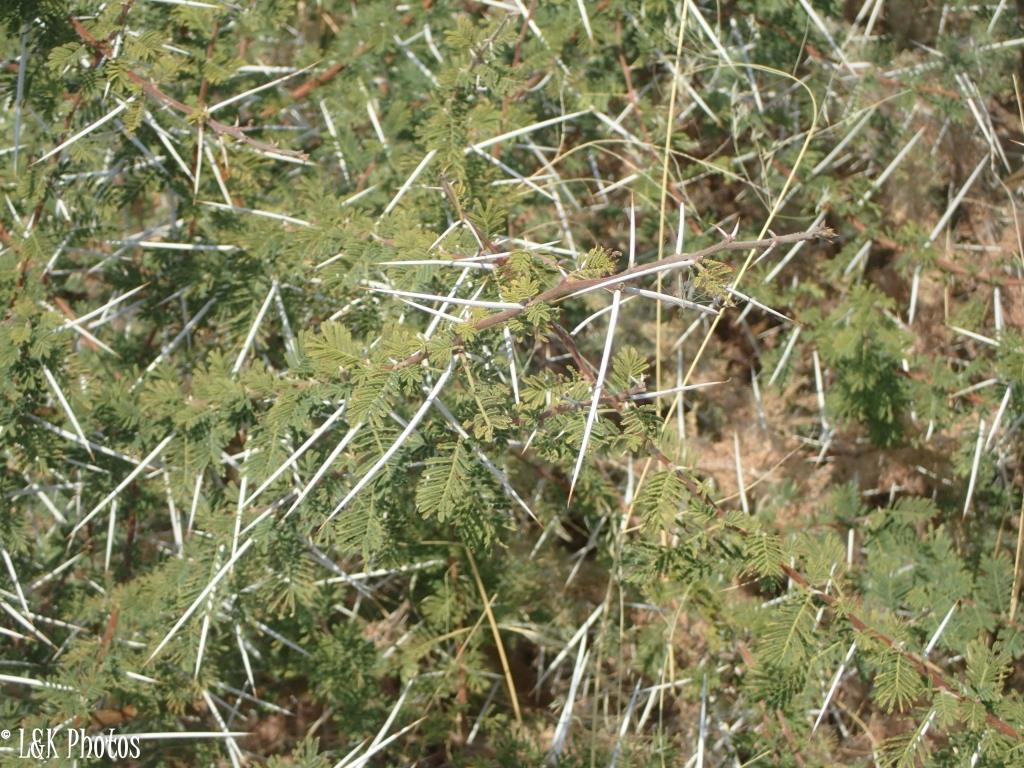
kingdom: Plantae
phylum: Tracheophyta
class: Magnoliopsida
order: Fabales
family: Fabaceae
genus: Vachellia
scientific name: Vachellia tortilis
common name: Umbrella thorn acacia
